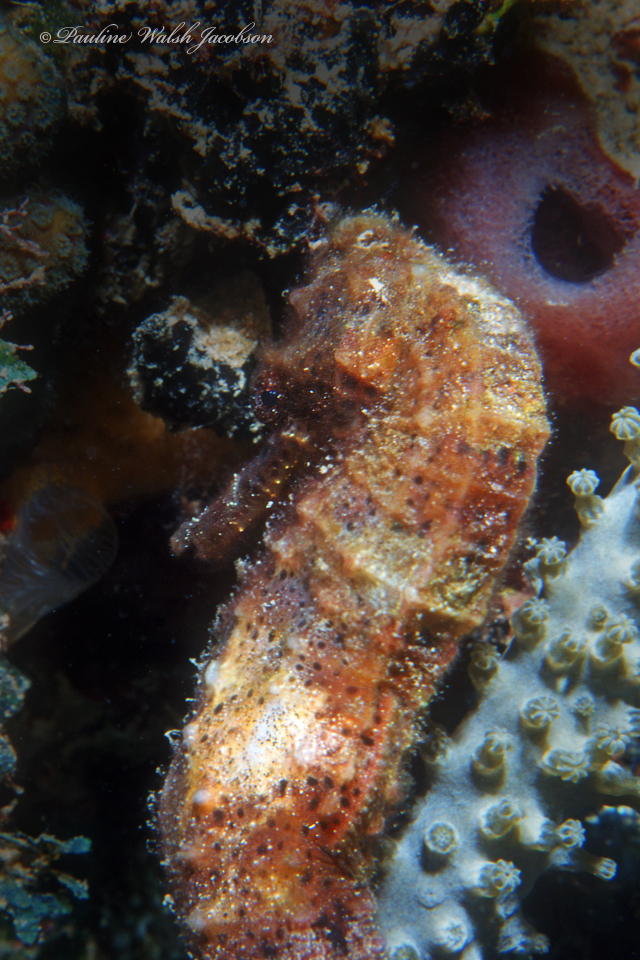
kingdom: Animalia
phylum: Chordata
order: Syngnathiformes
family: Syngnathidae
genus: Hippocampus
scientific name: Hippocampus reidi
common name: Slender seahorse
